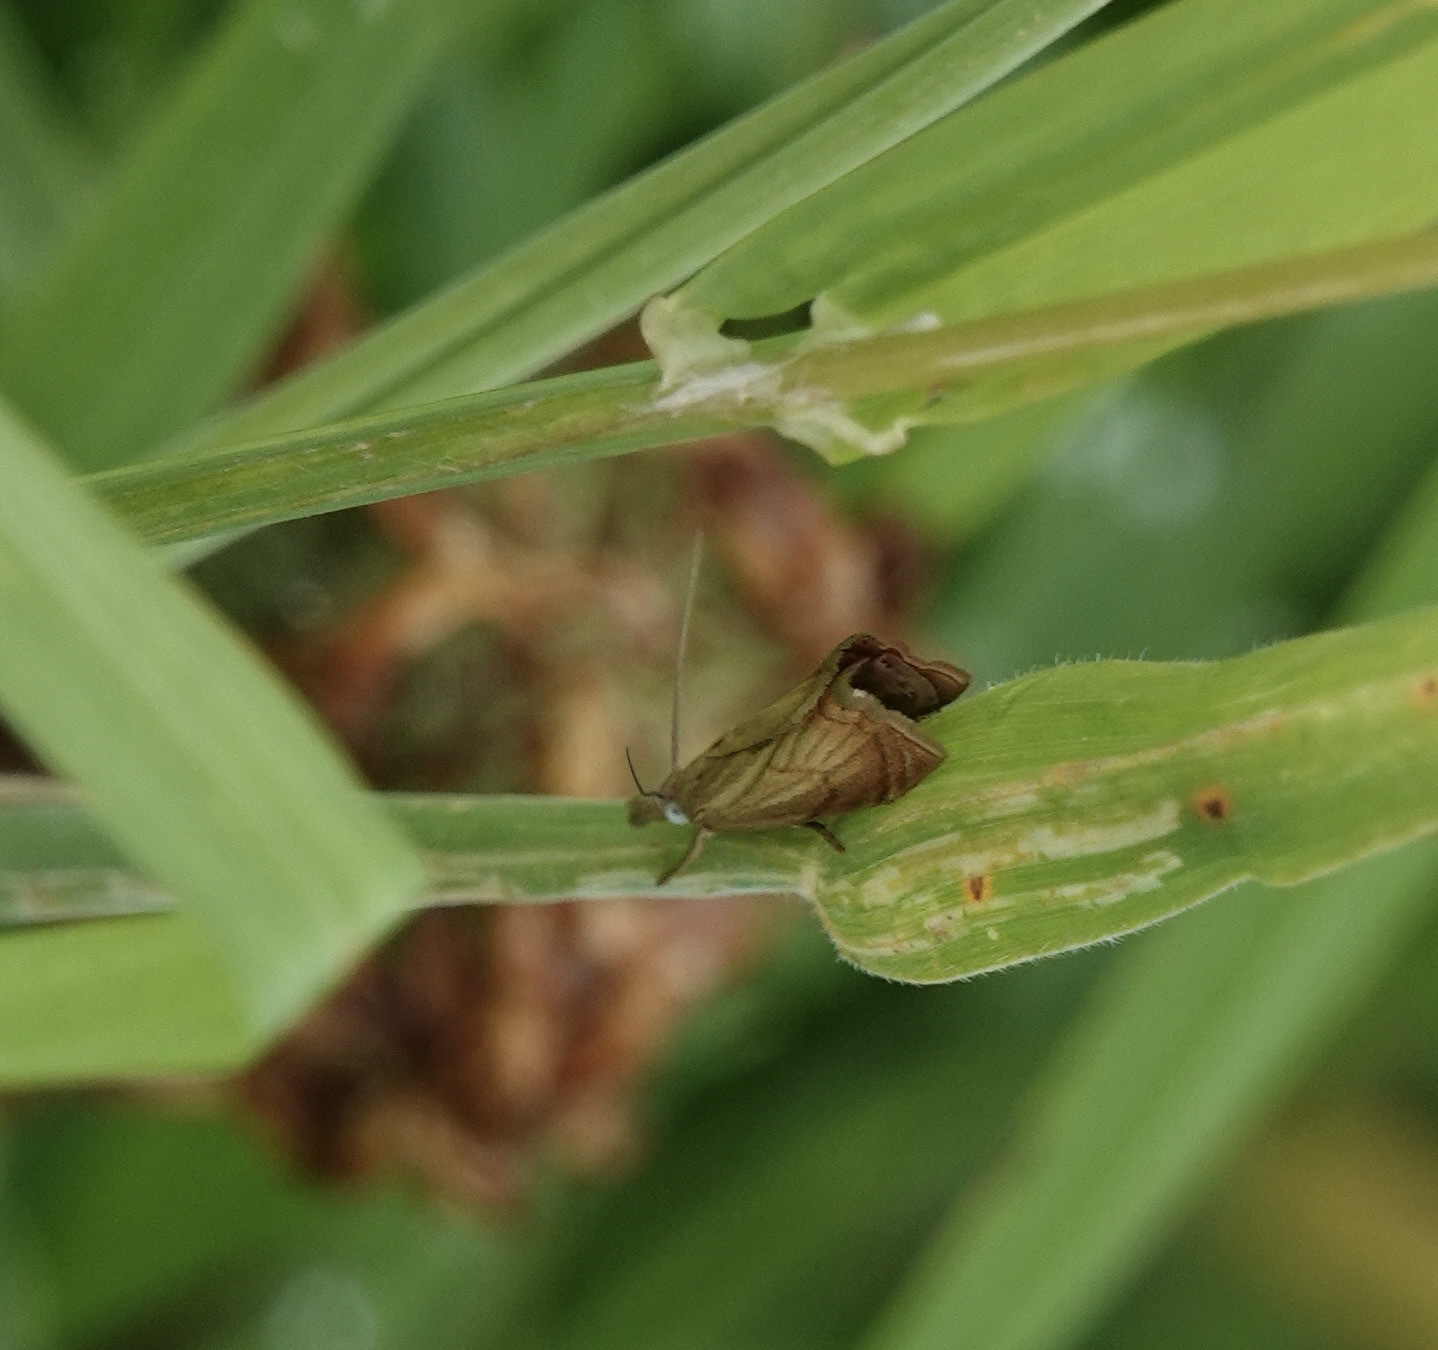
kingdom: Animalia
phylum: Arthropoda
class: Insecta
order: Lepidoptera
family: Crambidae
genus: Chrysoteuchia
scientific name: Chrysoteuchia culmella
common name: Garden grass-veneer
